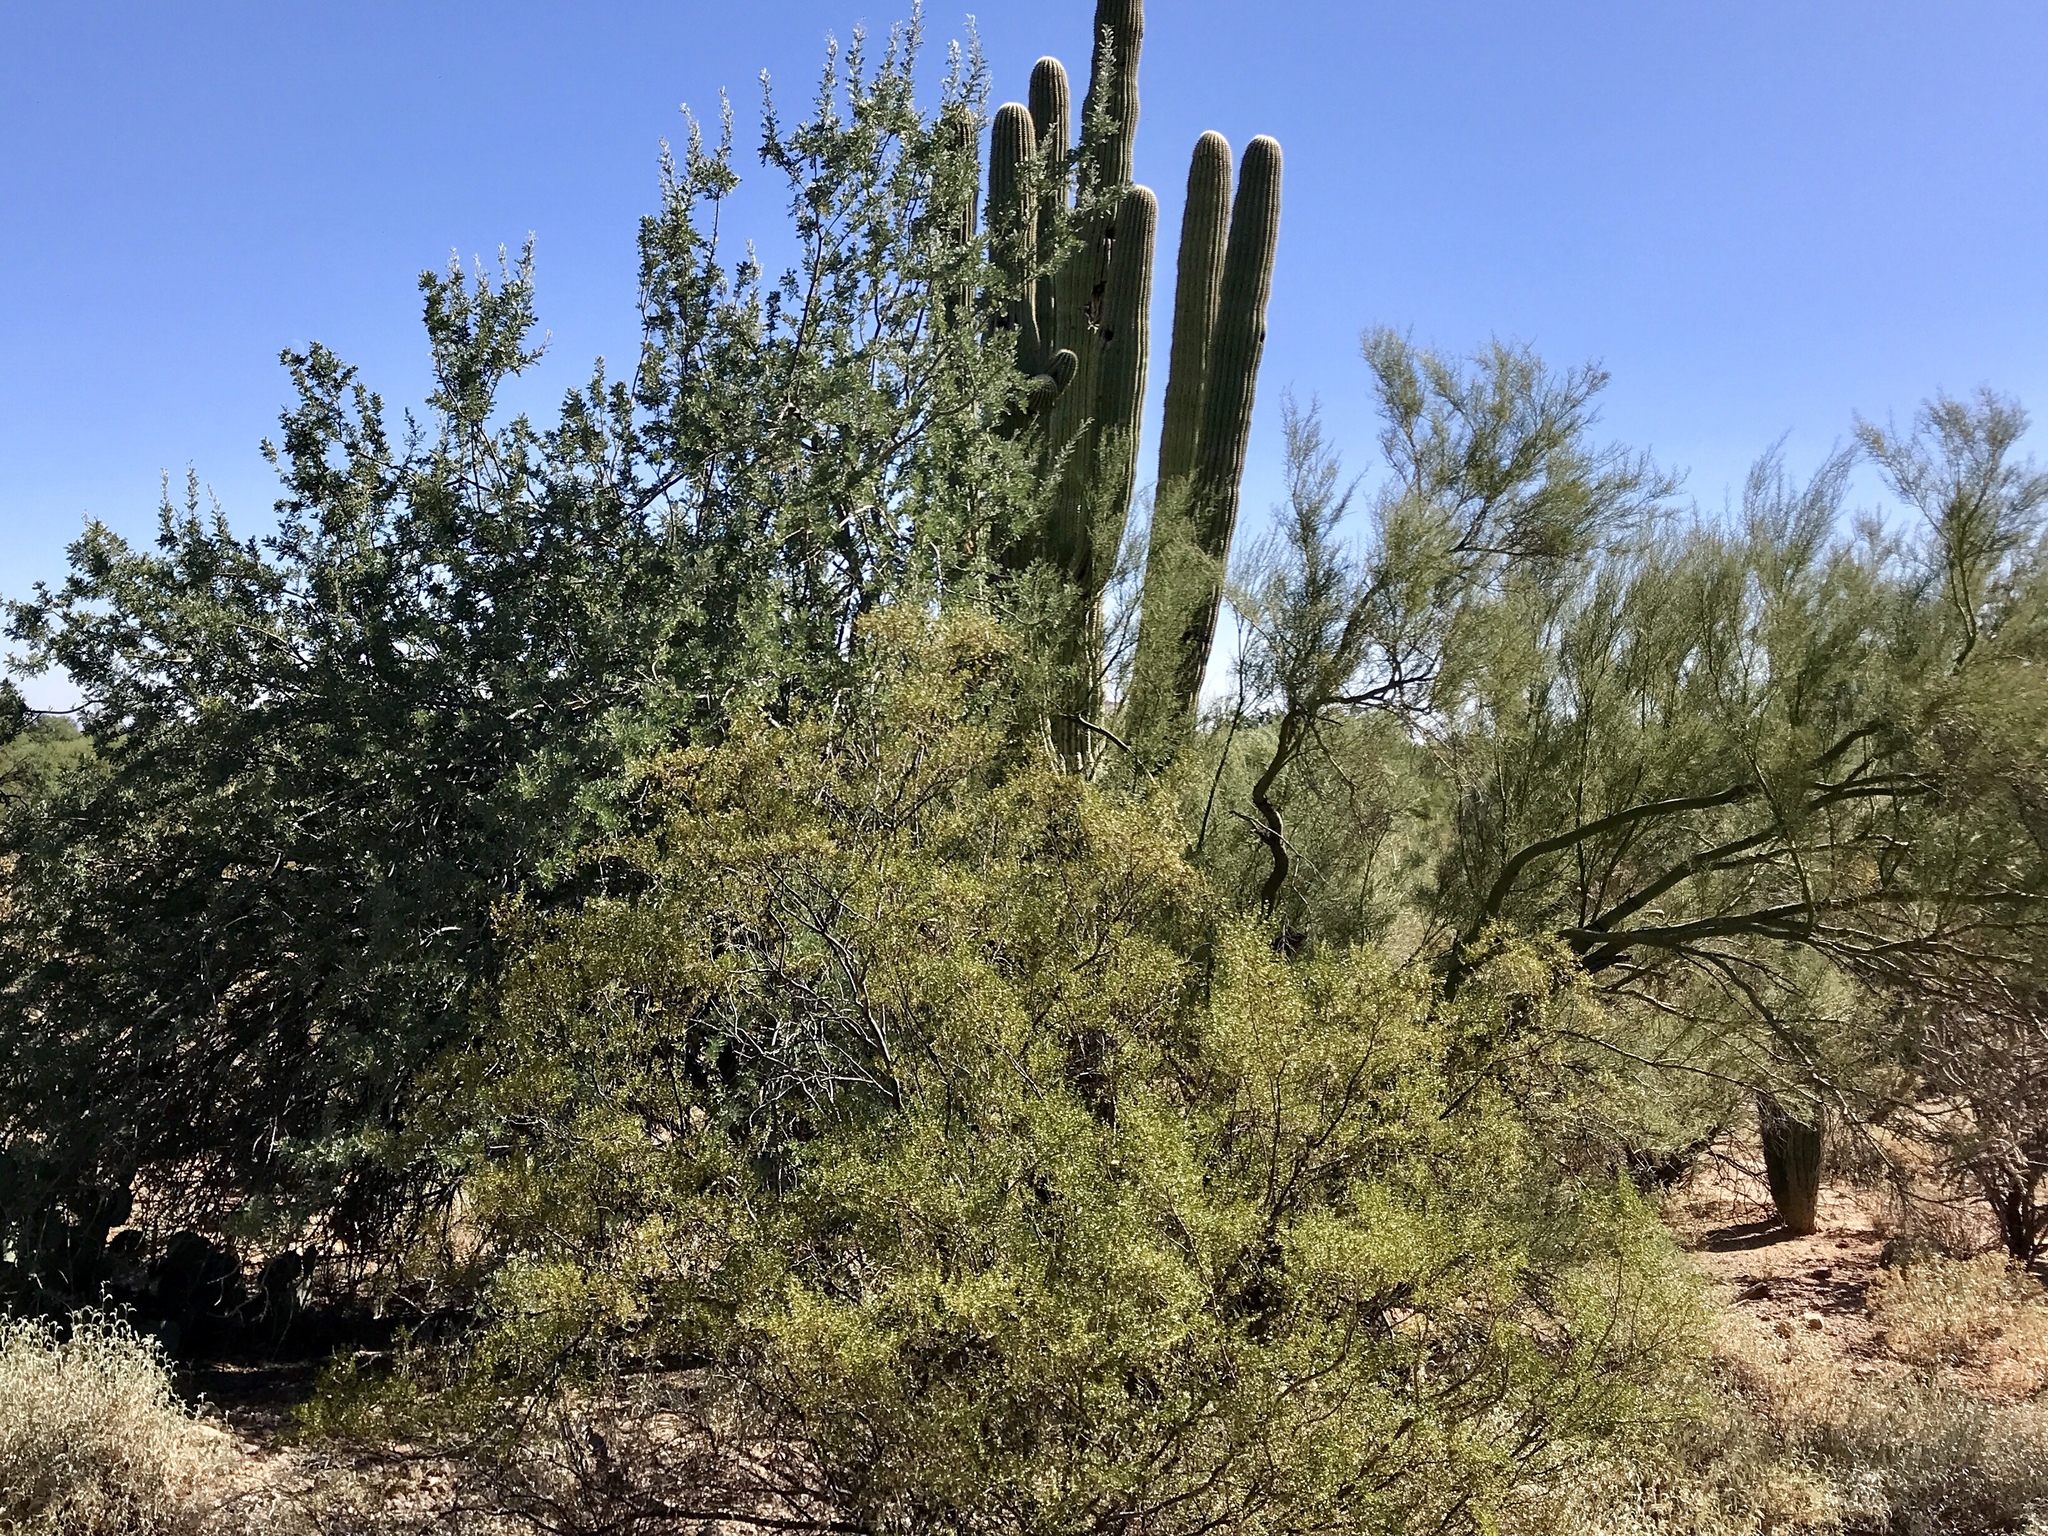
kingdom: Plantae
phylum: Tracheophyta
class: Magnoliopsida
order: Zygophyllales
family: Zygophyllaceae
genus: Larrea
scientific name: Larrea tridentata
